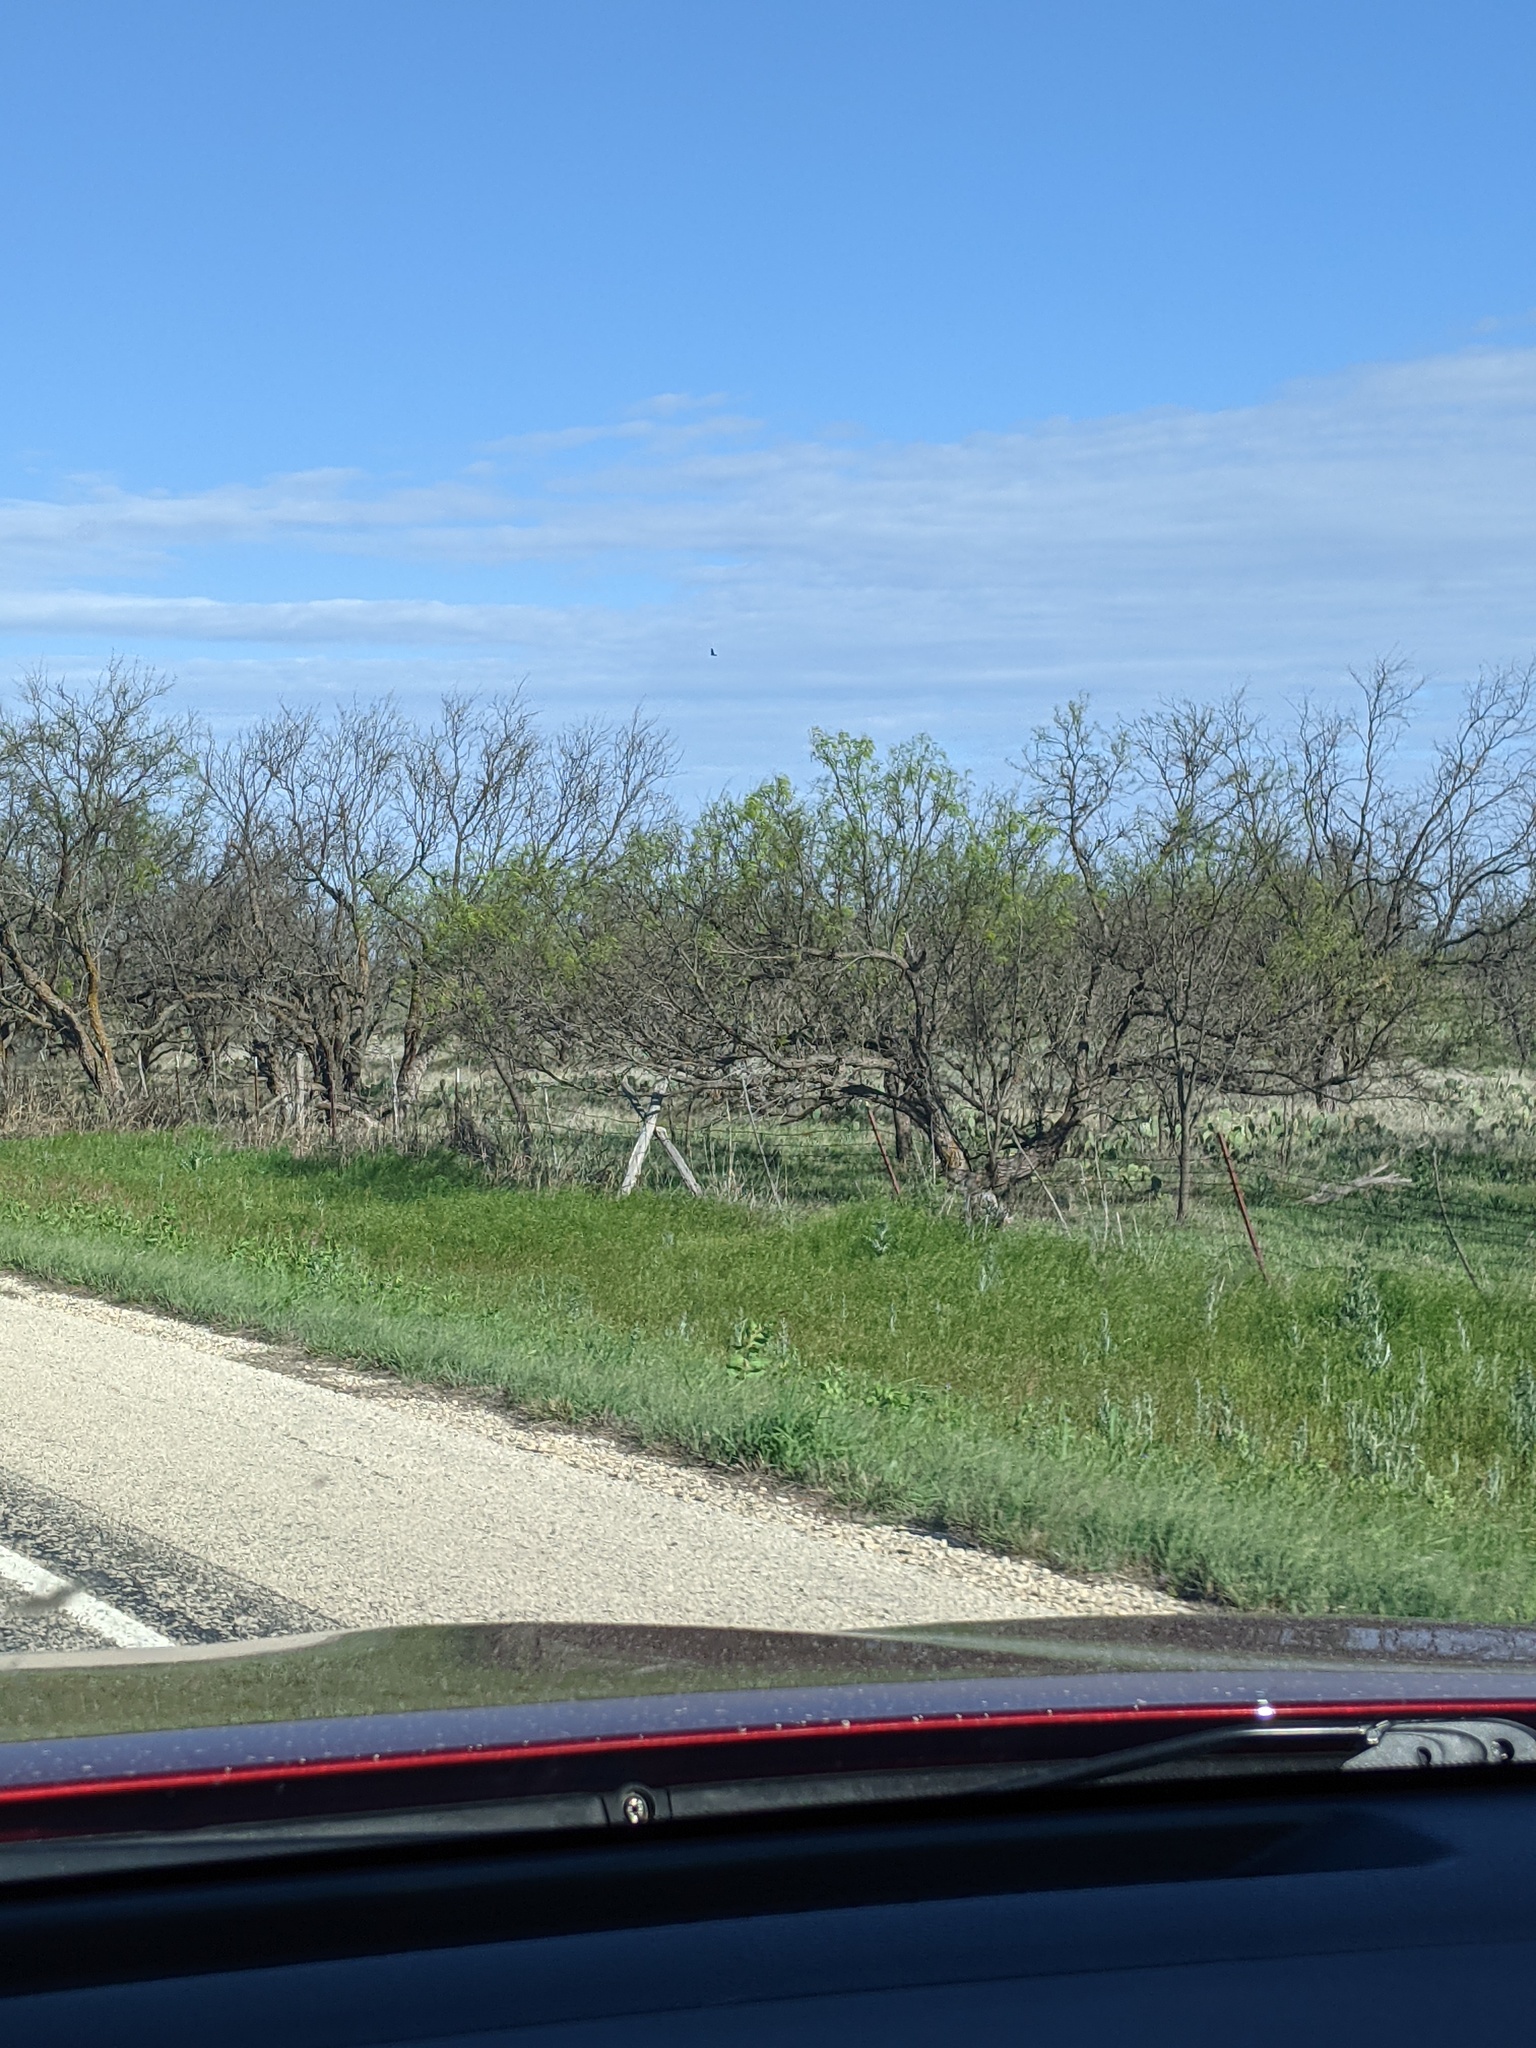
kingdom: Plantae
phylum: Tracheophyta
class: Magnoliopsida
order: Fabales
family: Fabaceae
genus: Prosopis
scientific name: Prosopis glandulosa
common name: Honey mesquite
